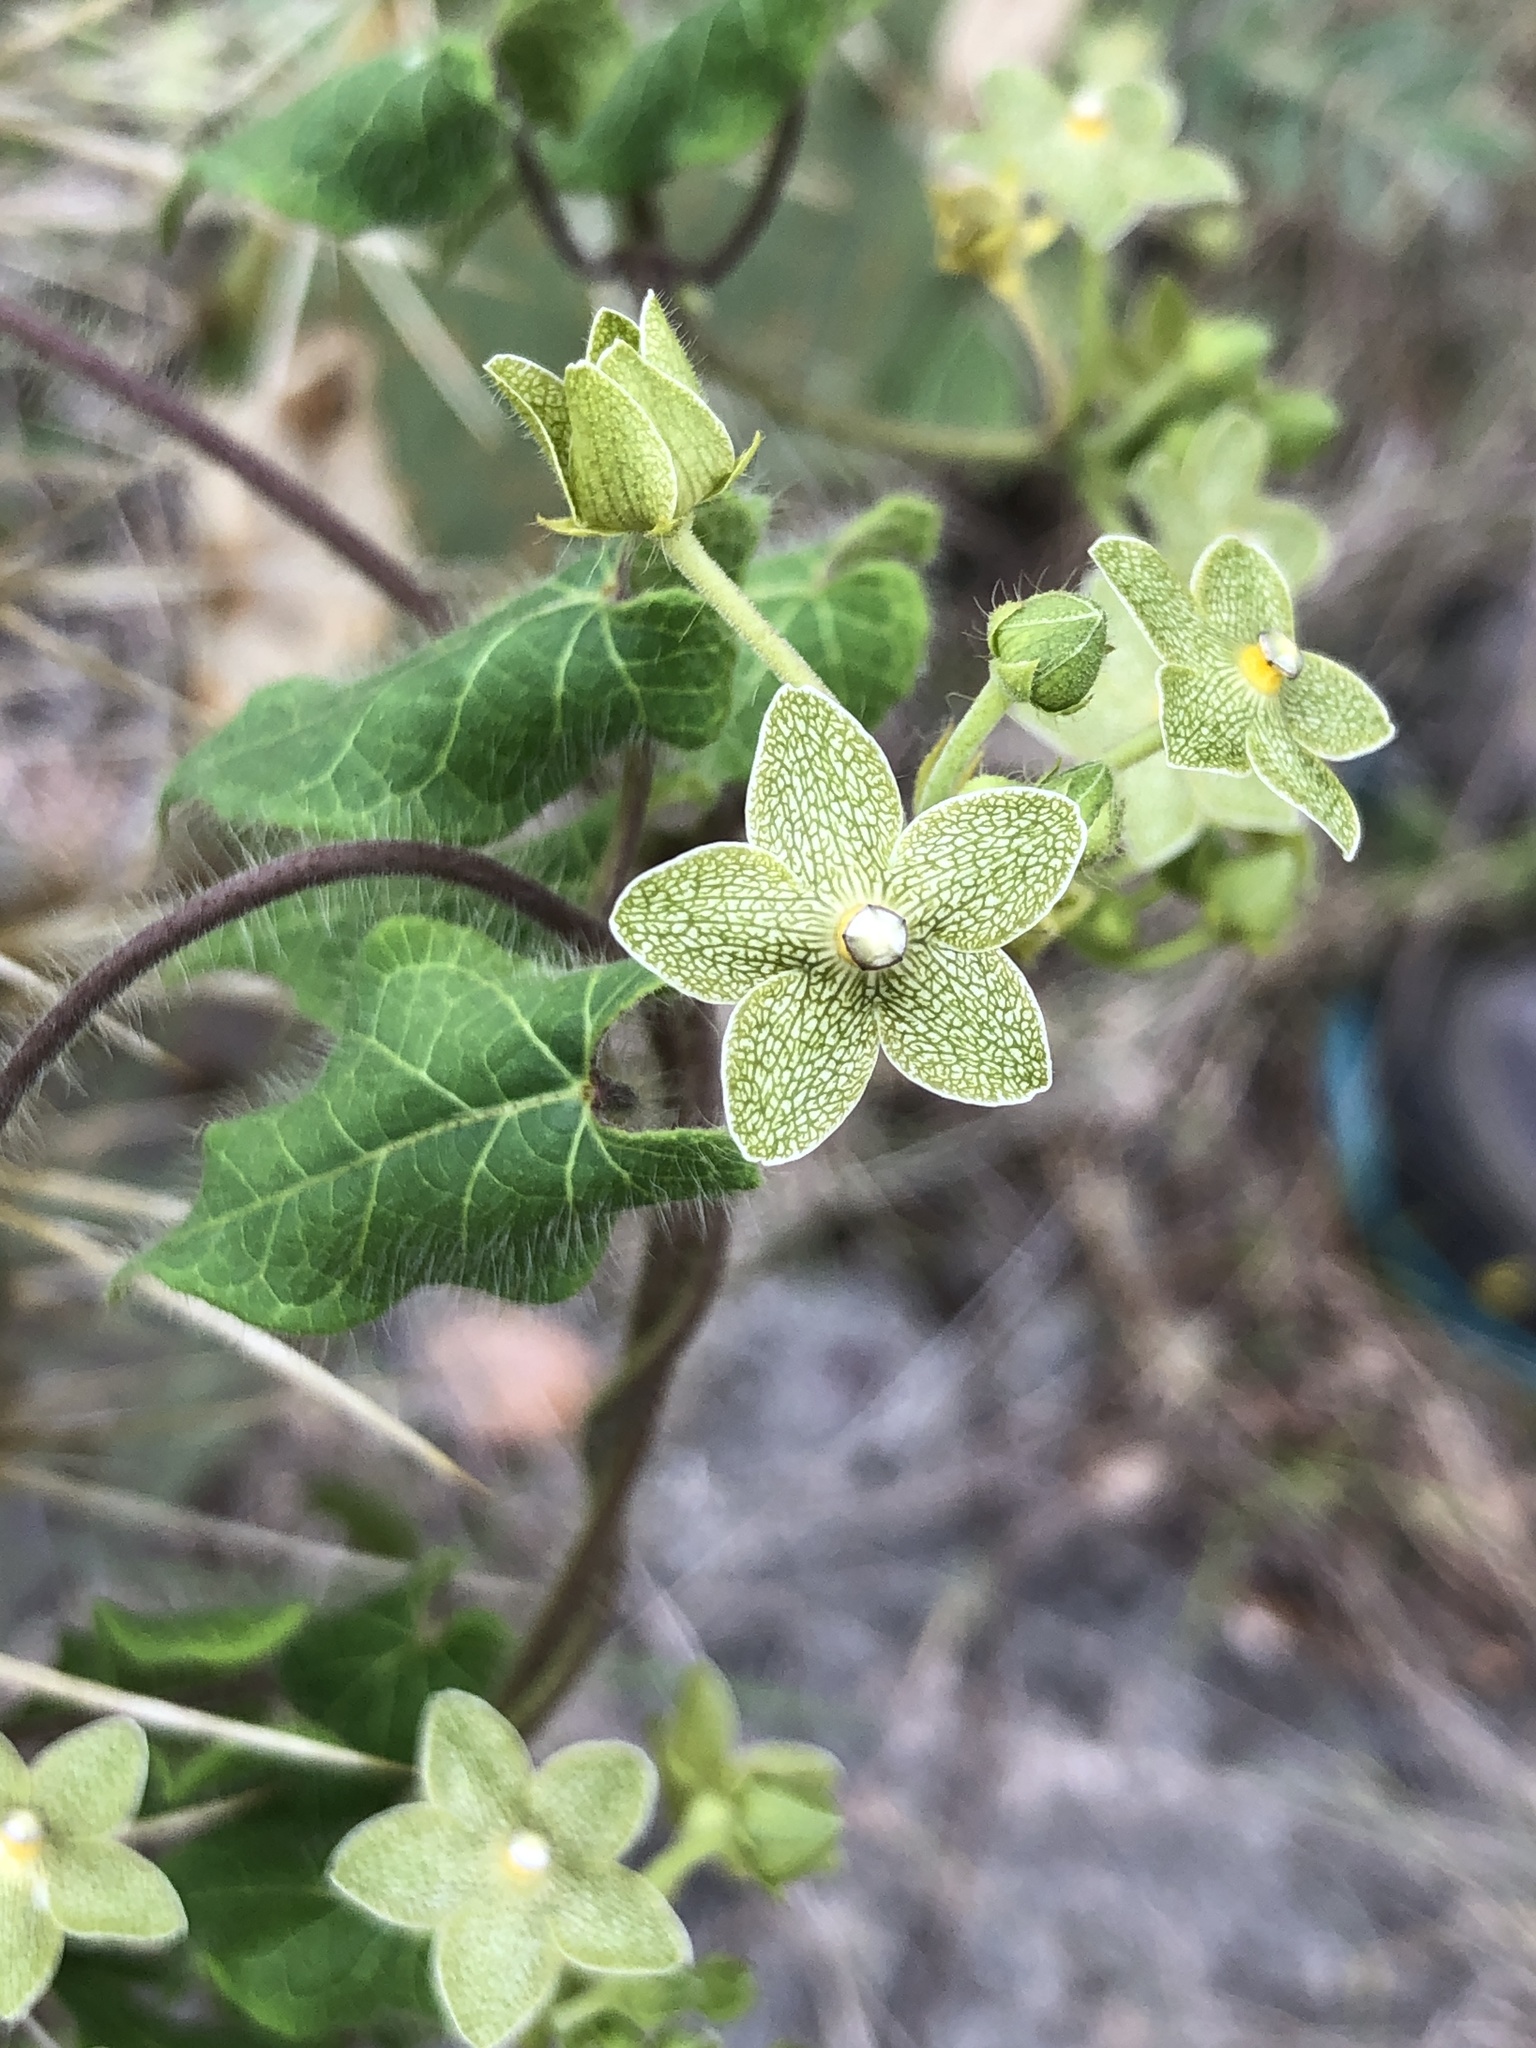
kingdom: Plantae
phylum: Tracheophyta
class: Magnoliopsida
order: Gentianales
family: Apocynaceae
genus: Dictyanthus
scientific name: Dictyanthus reticulatus
